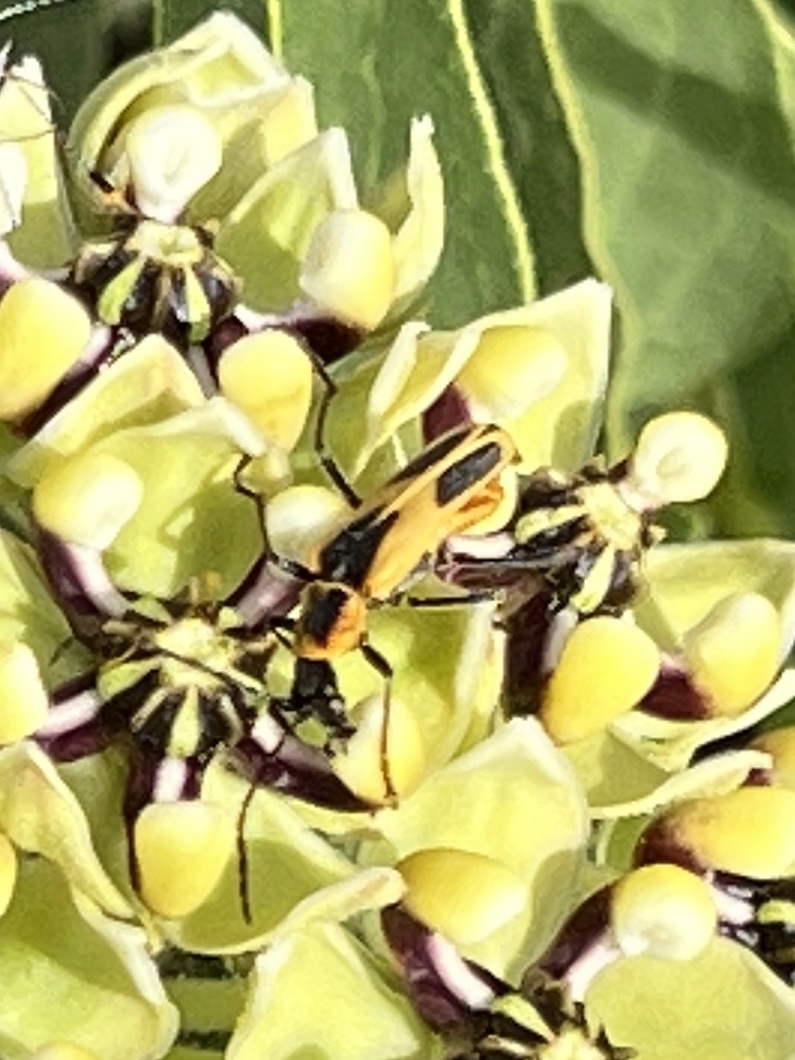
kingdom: Animalia
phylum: Arthropoda
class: Insecta
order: Coleoptera
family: Cantharidae
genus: Chauliognathus
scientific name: Chauliognathus scutellaris
